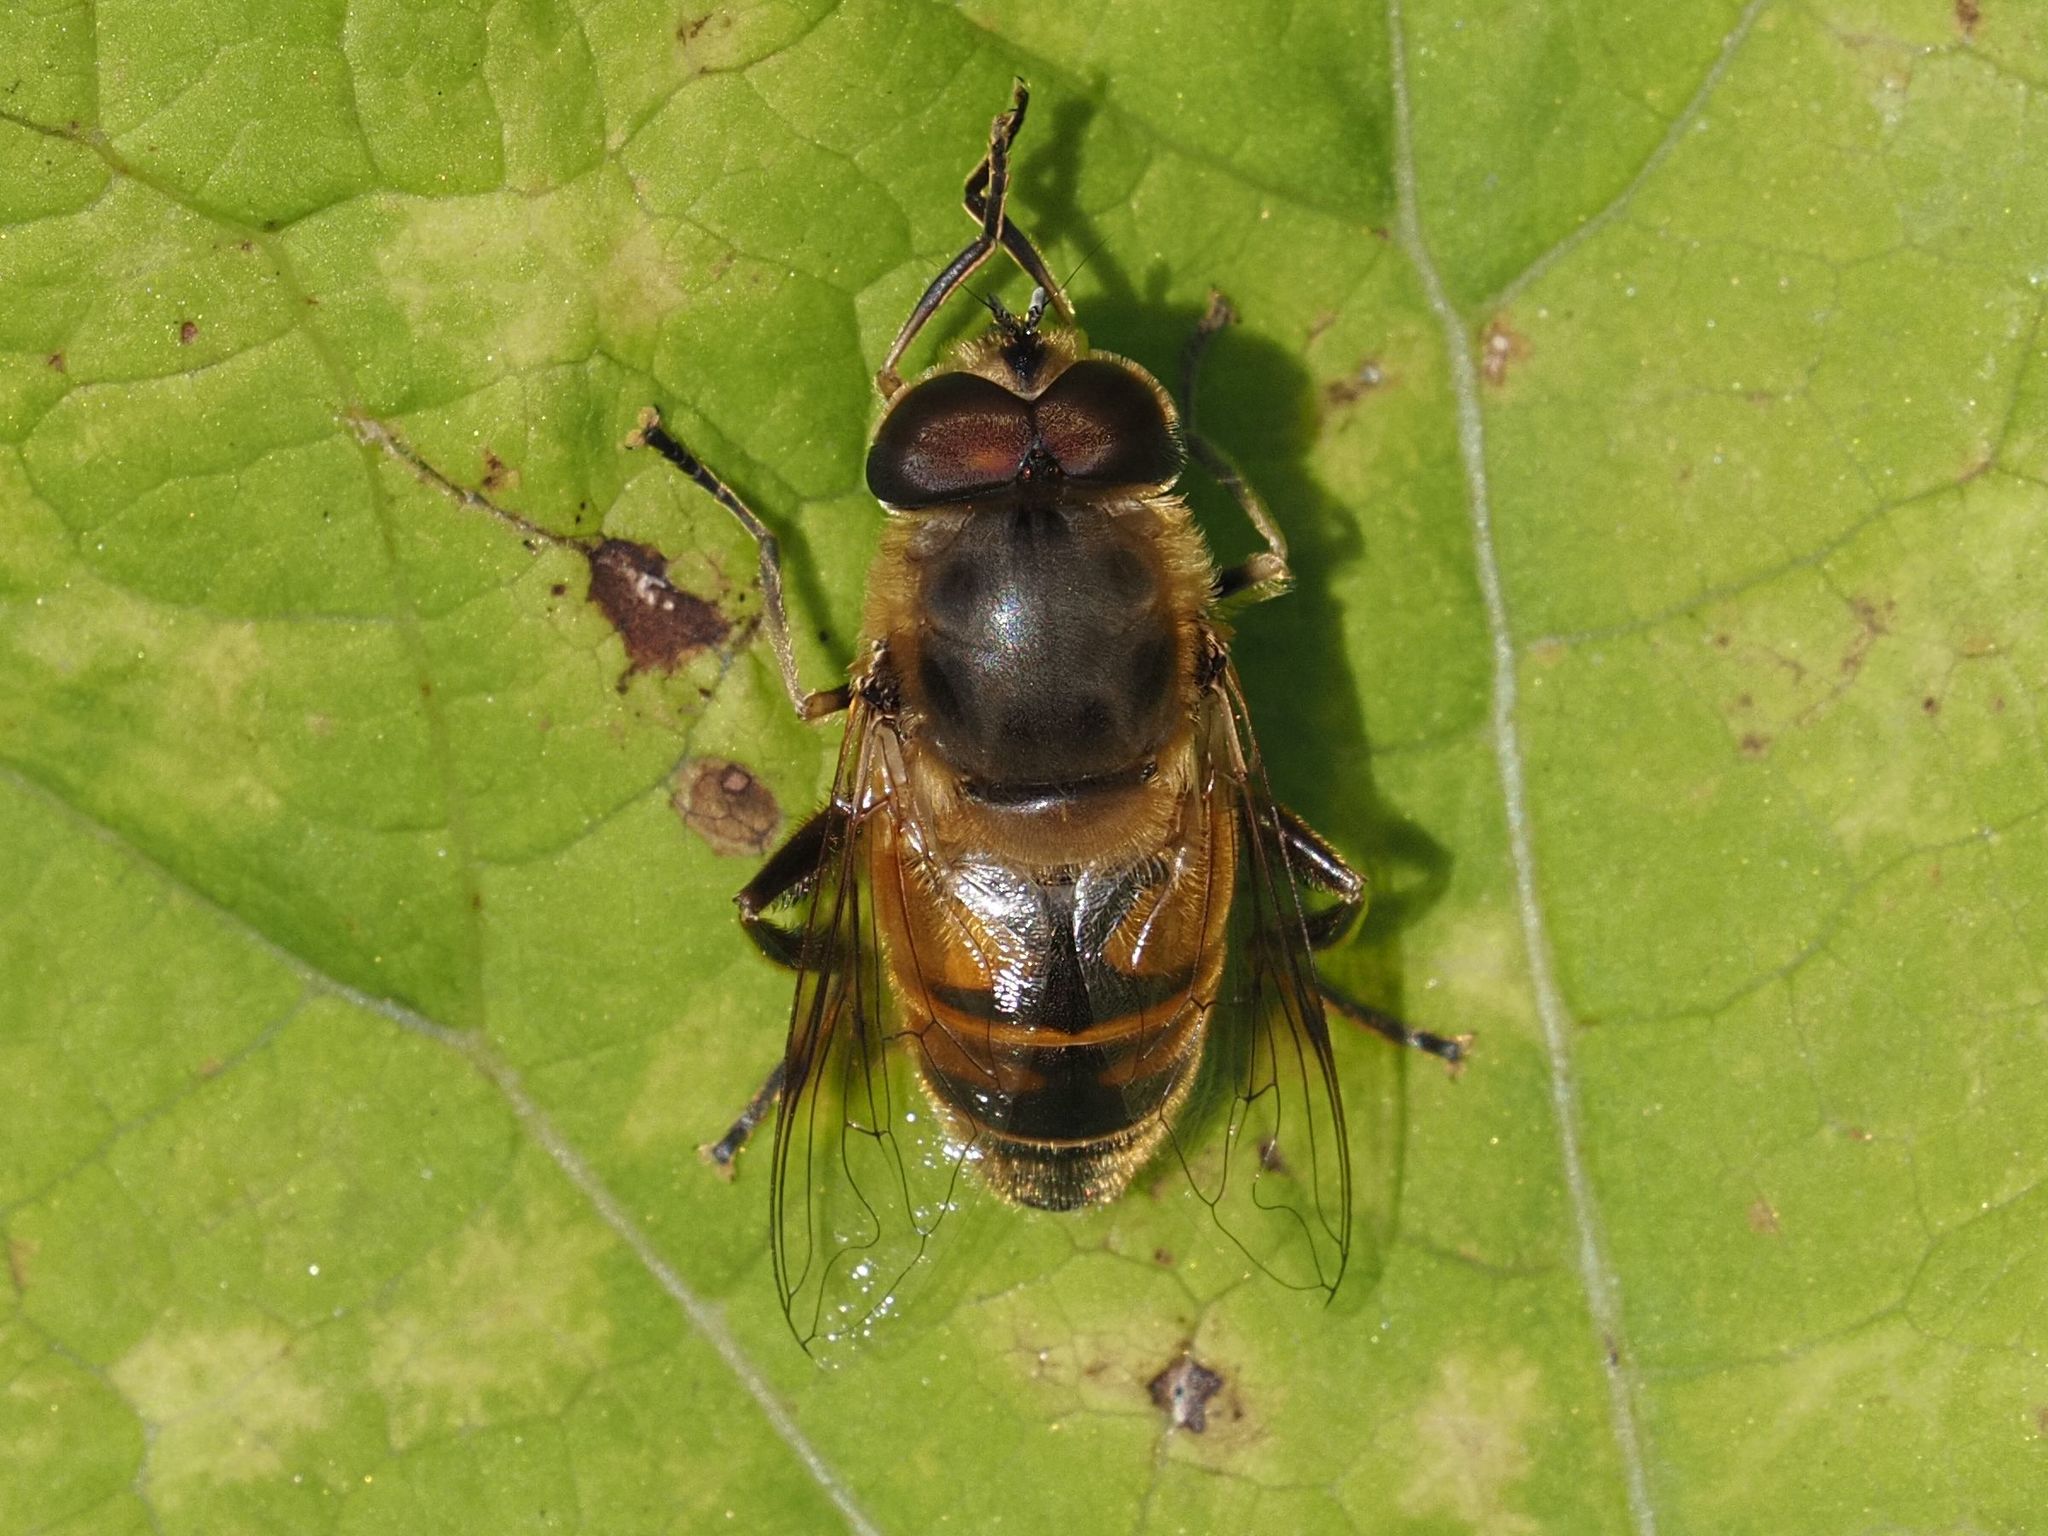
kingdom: Animalia
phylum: Arthropoda
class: Insecta
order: Diptera
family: Syrphidae
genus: Eristalis
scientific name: Eristalis tenax
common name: Drone fly
